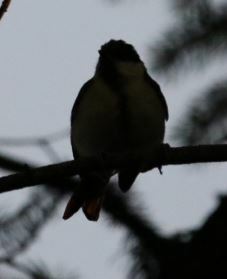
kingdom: Animalia
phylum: Chordata
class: Aves
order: Passeriformes
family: Paridae
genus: Parus
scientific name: Parus major
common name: Great tit
